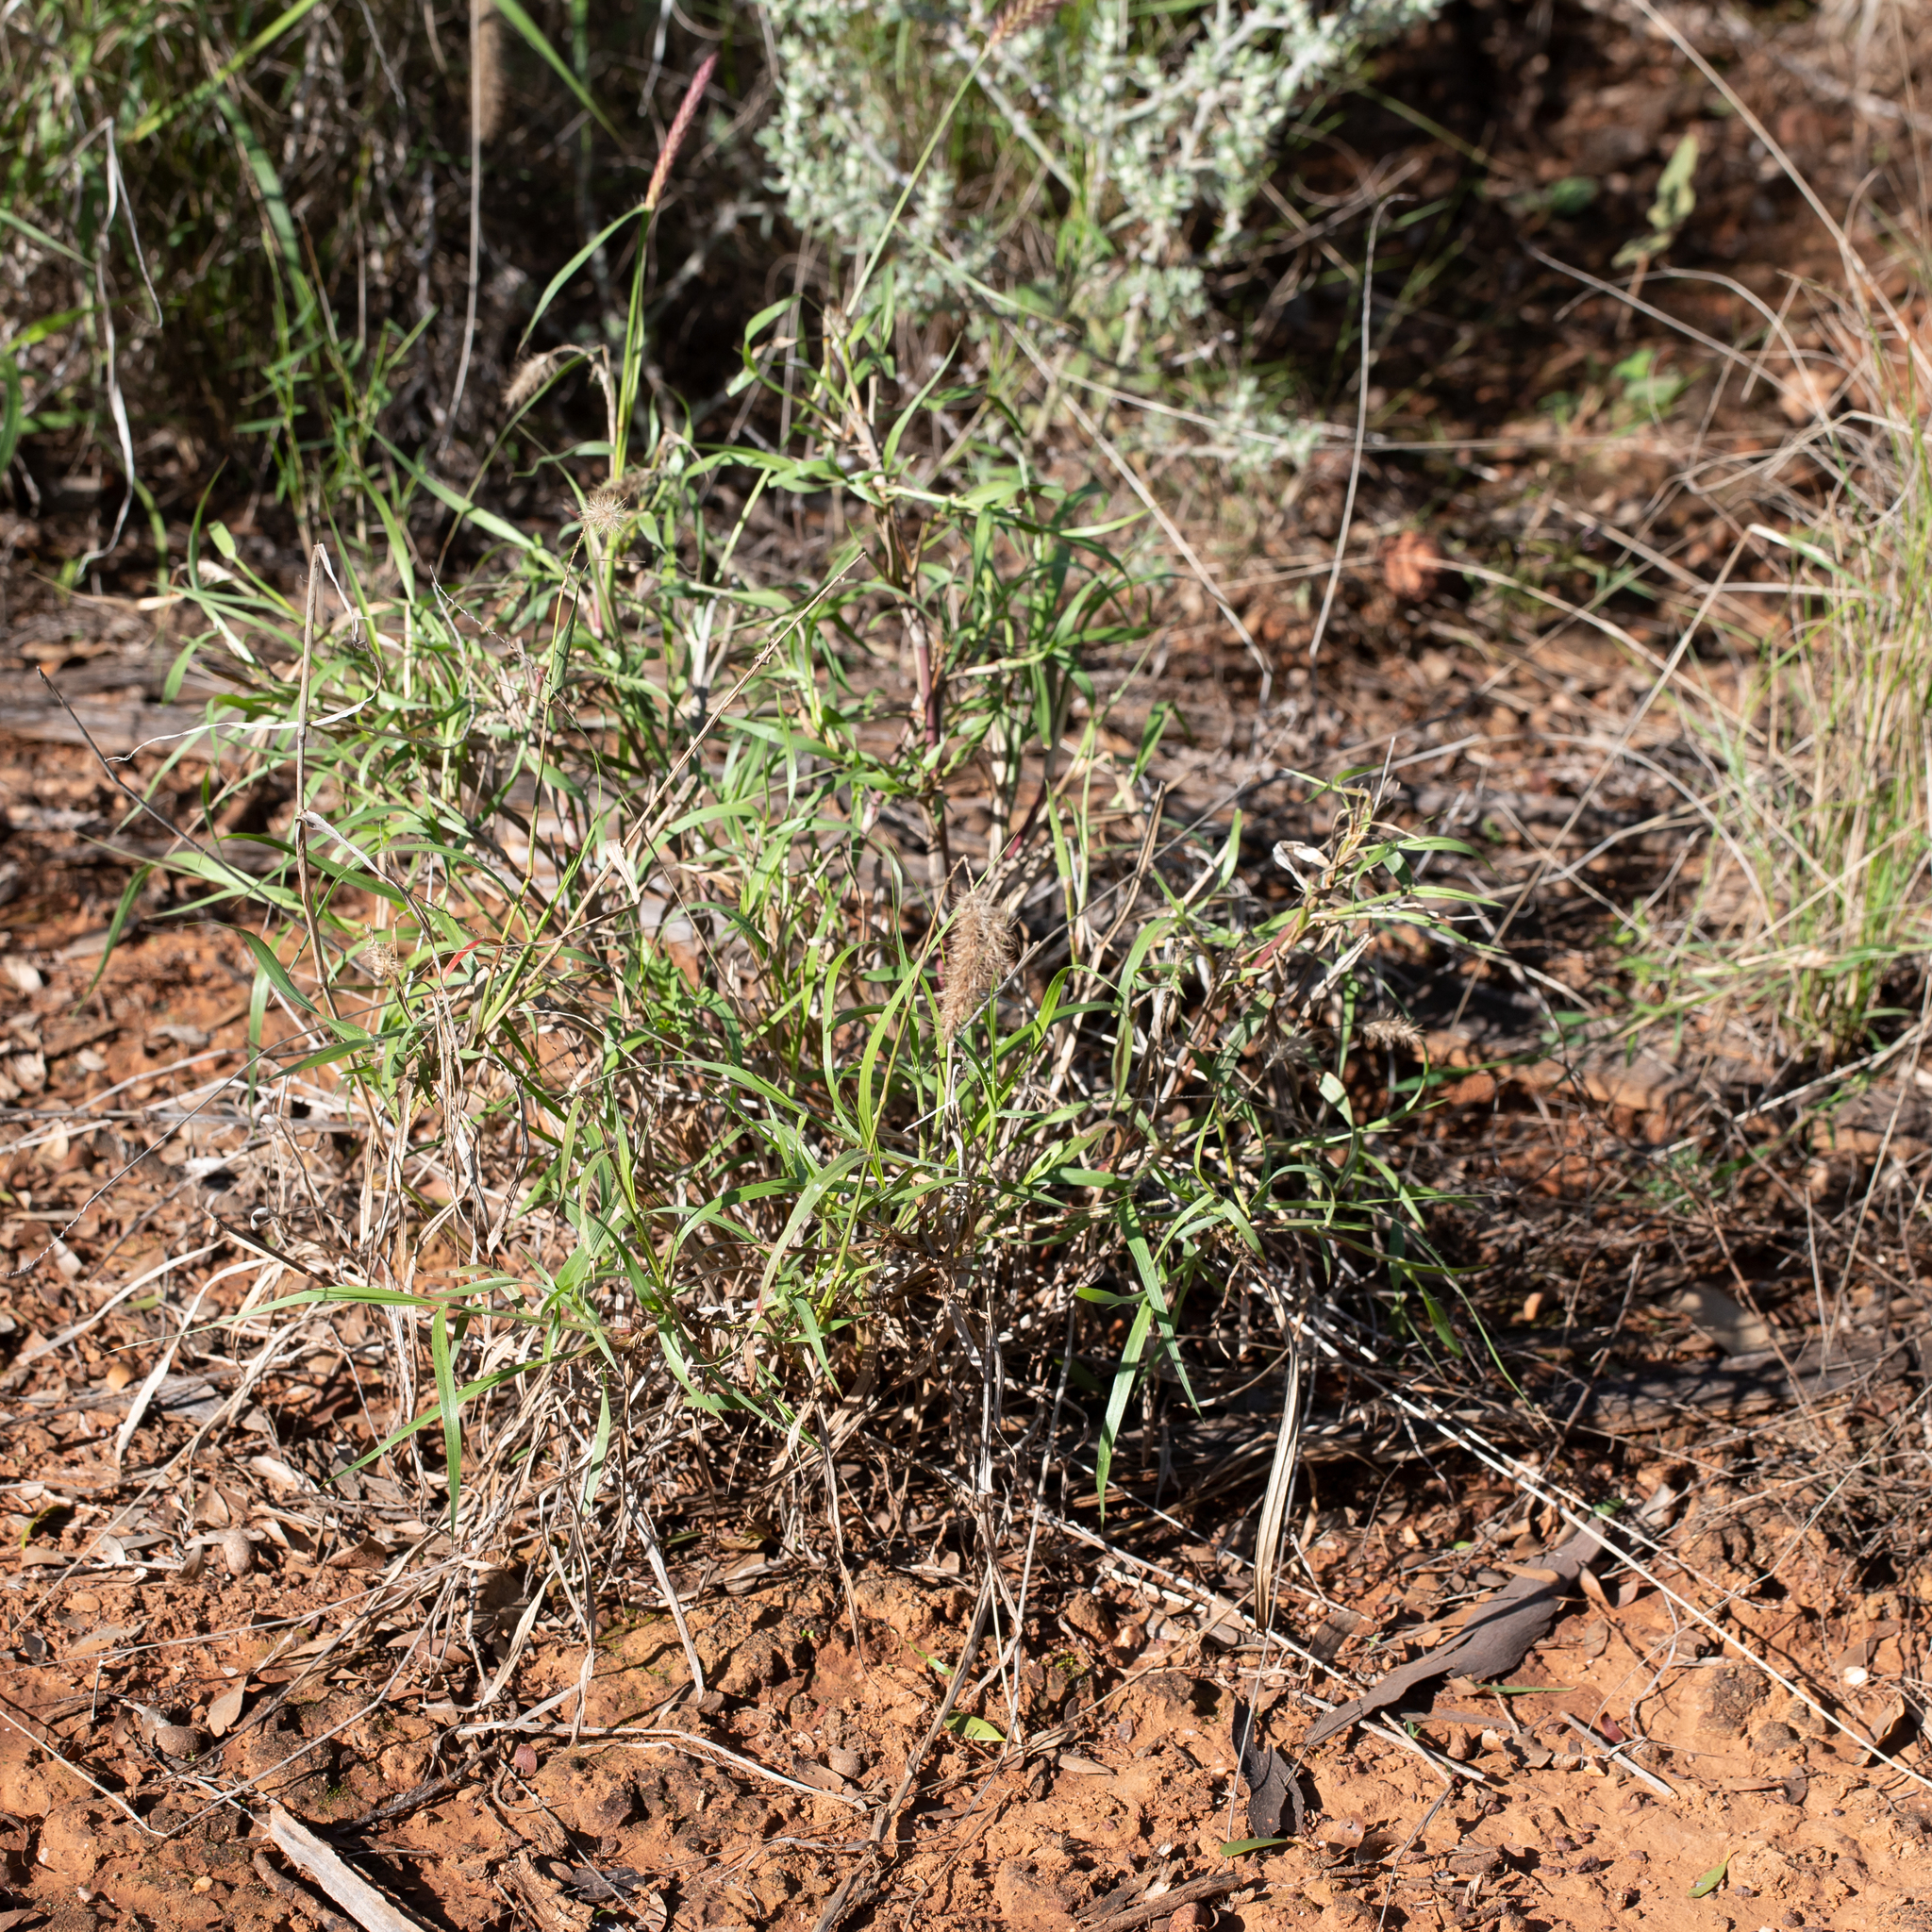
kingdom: Plantae
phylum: Tracheophyta
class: Liliopsida
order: Poales
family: Poaceae
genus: Cenchrus
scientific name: Cenchrus ciliaris
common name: Buffelgrass
